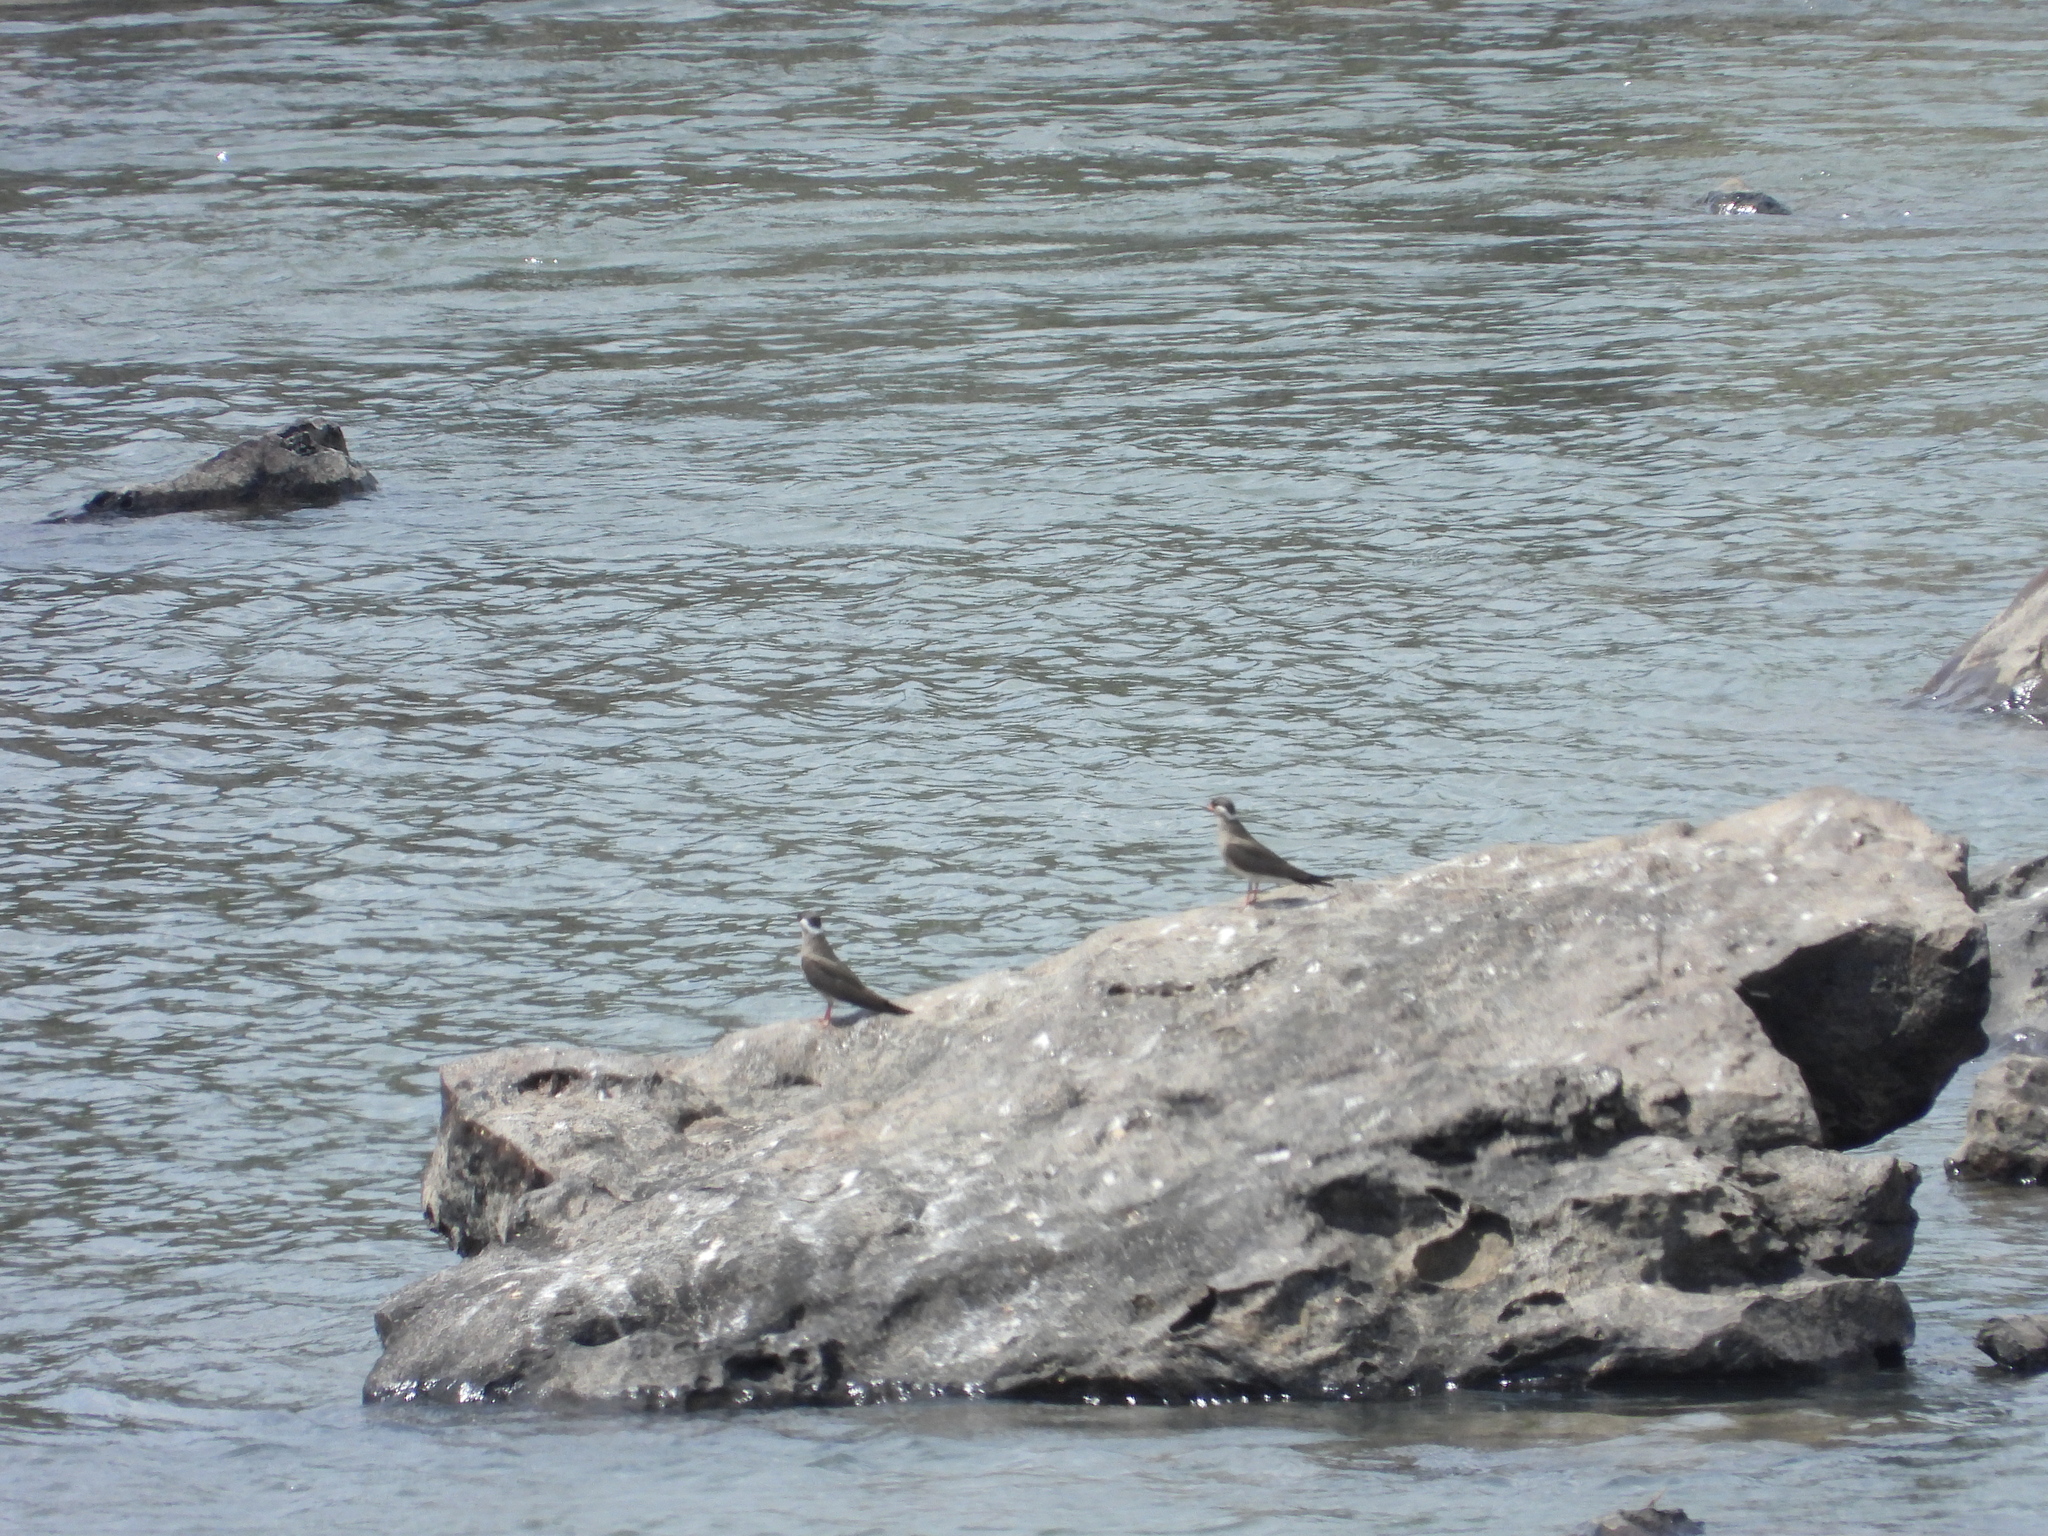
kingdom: Animalia
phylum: Chordata
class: Aves
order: Charadriiformes
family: Glareolidae
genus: Glareola
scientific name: Glareola nuchalis
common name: Rock pratincole
